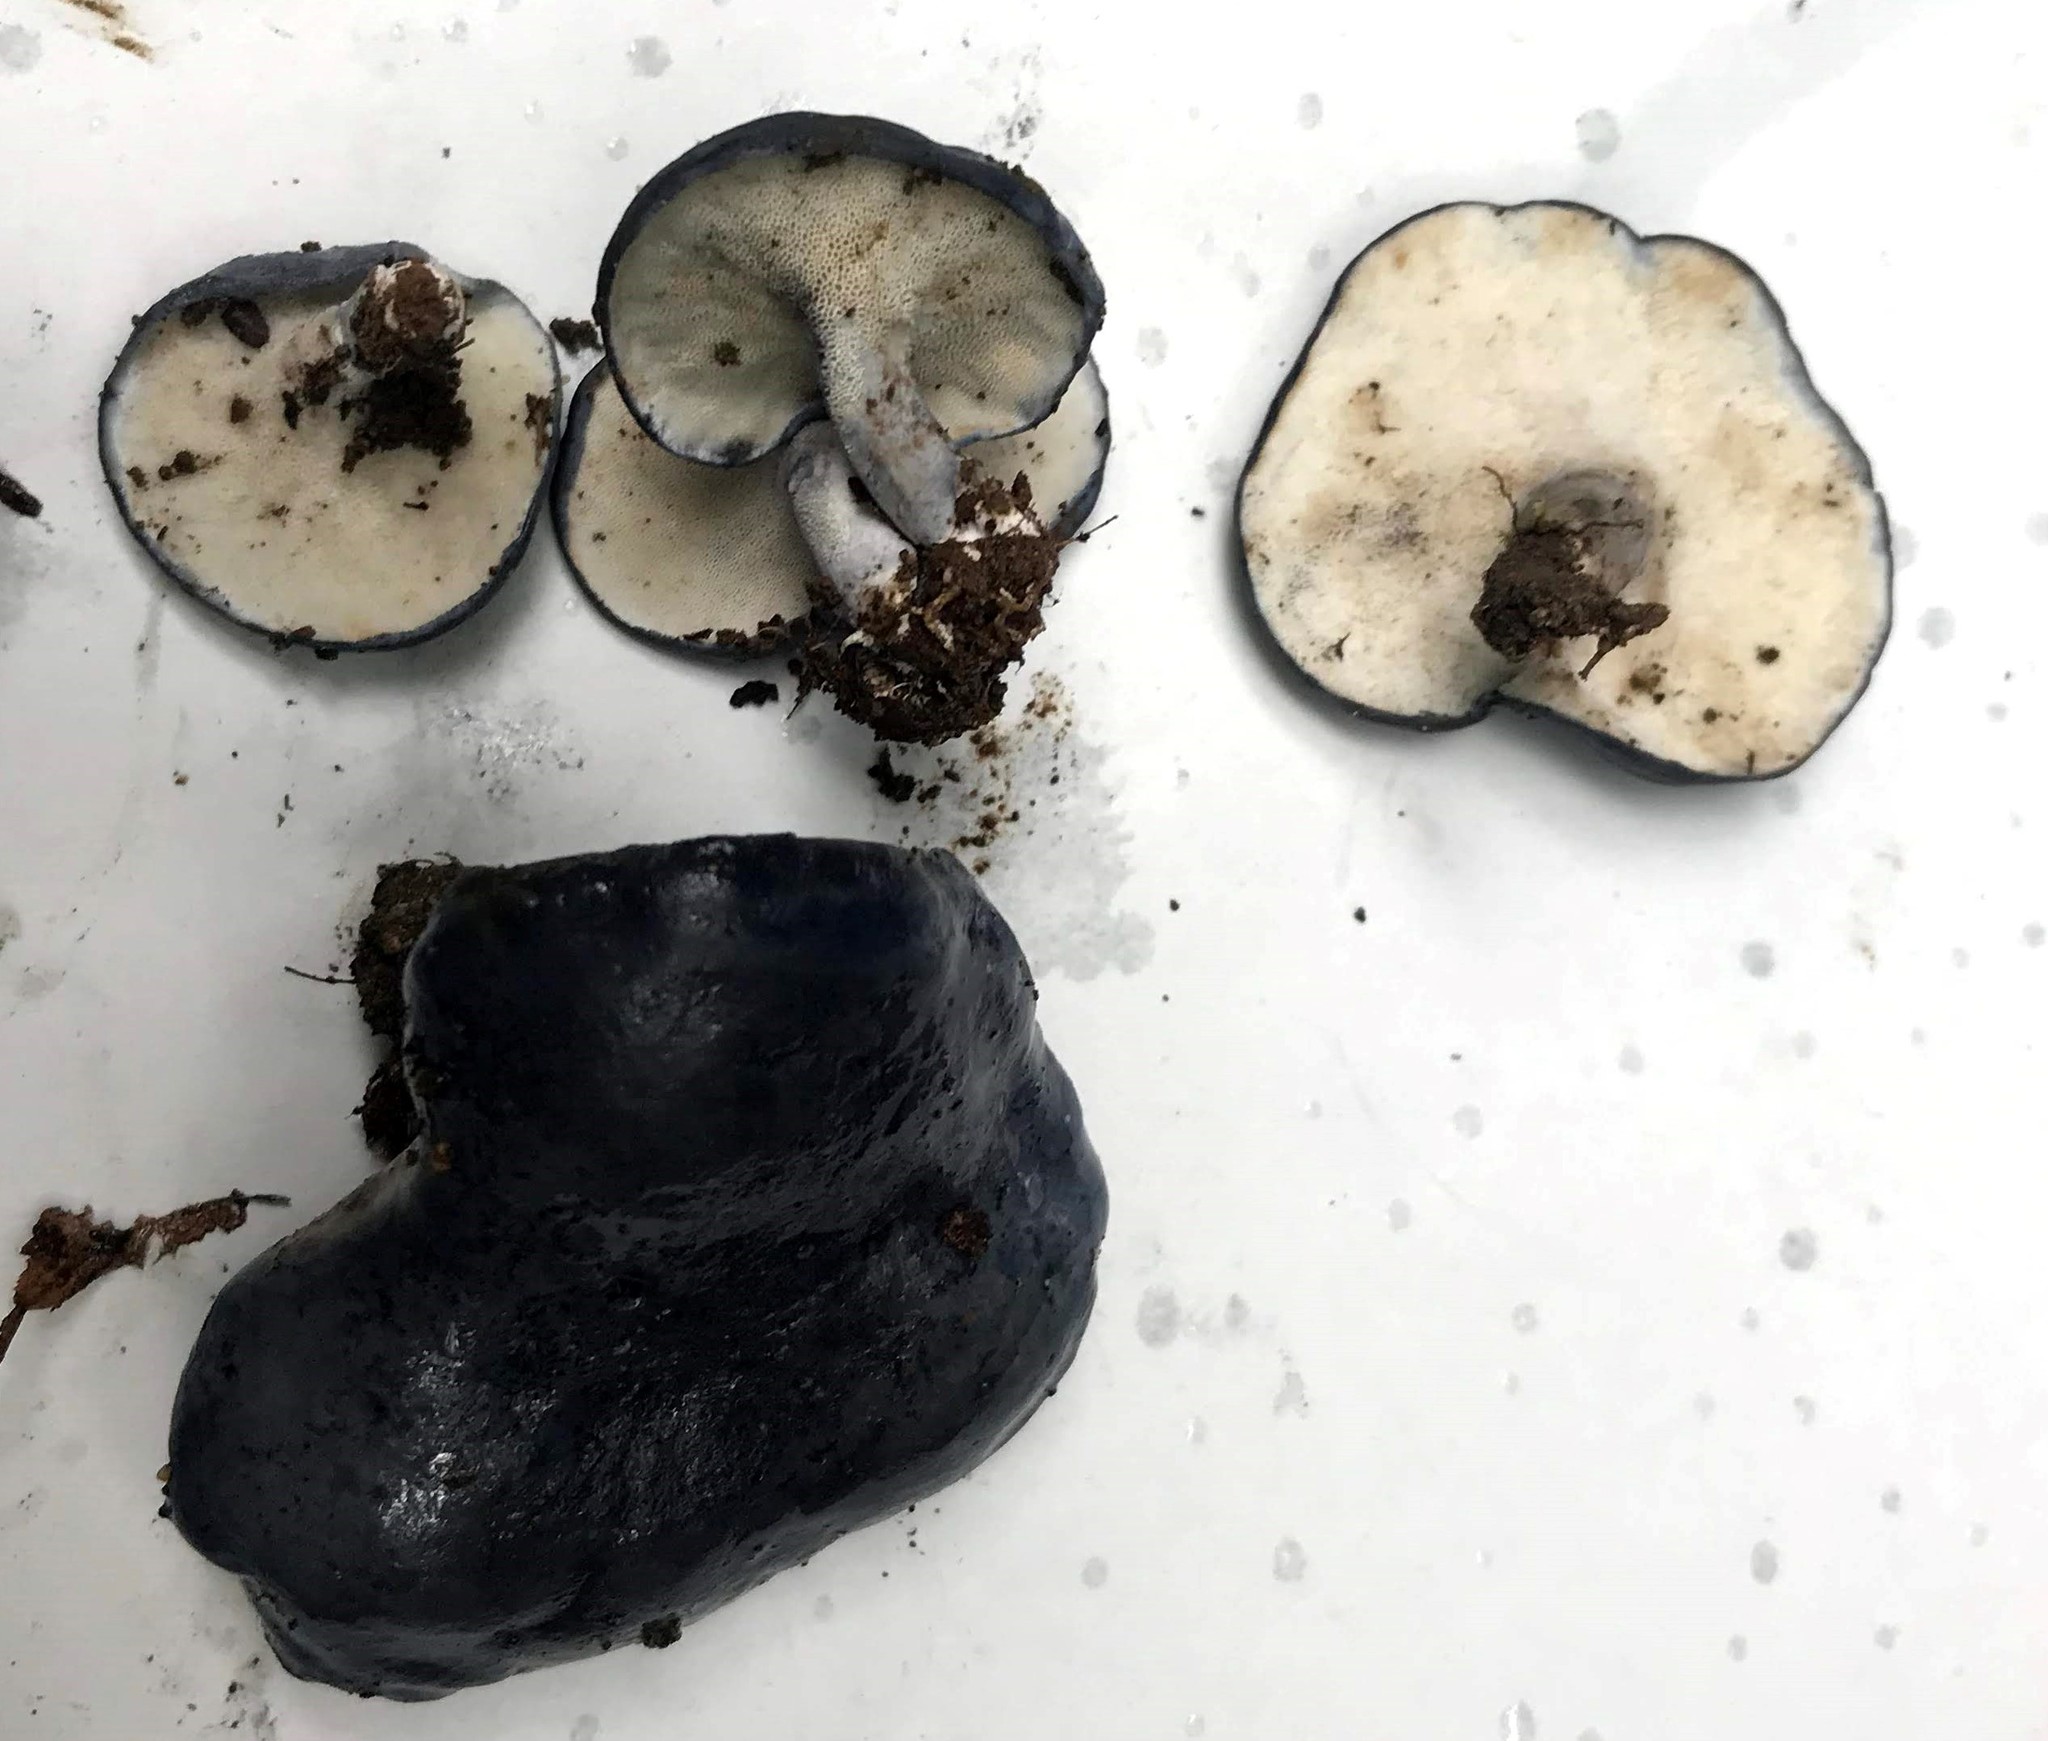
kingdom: Fungi
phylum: Basidiomycota
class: Agaricomycetes
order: Russulales
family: Albatrellaceae
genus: Neoalbatrellus
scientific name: Neoalbatrellus yasudae
